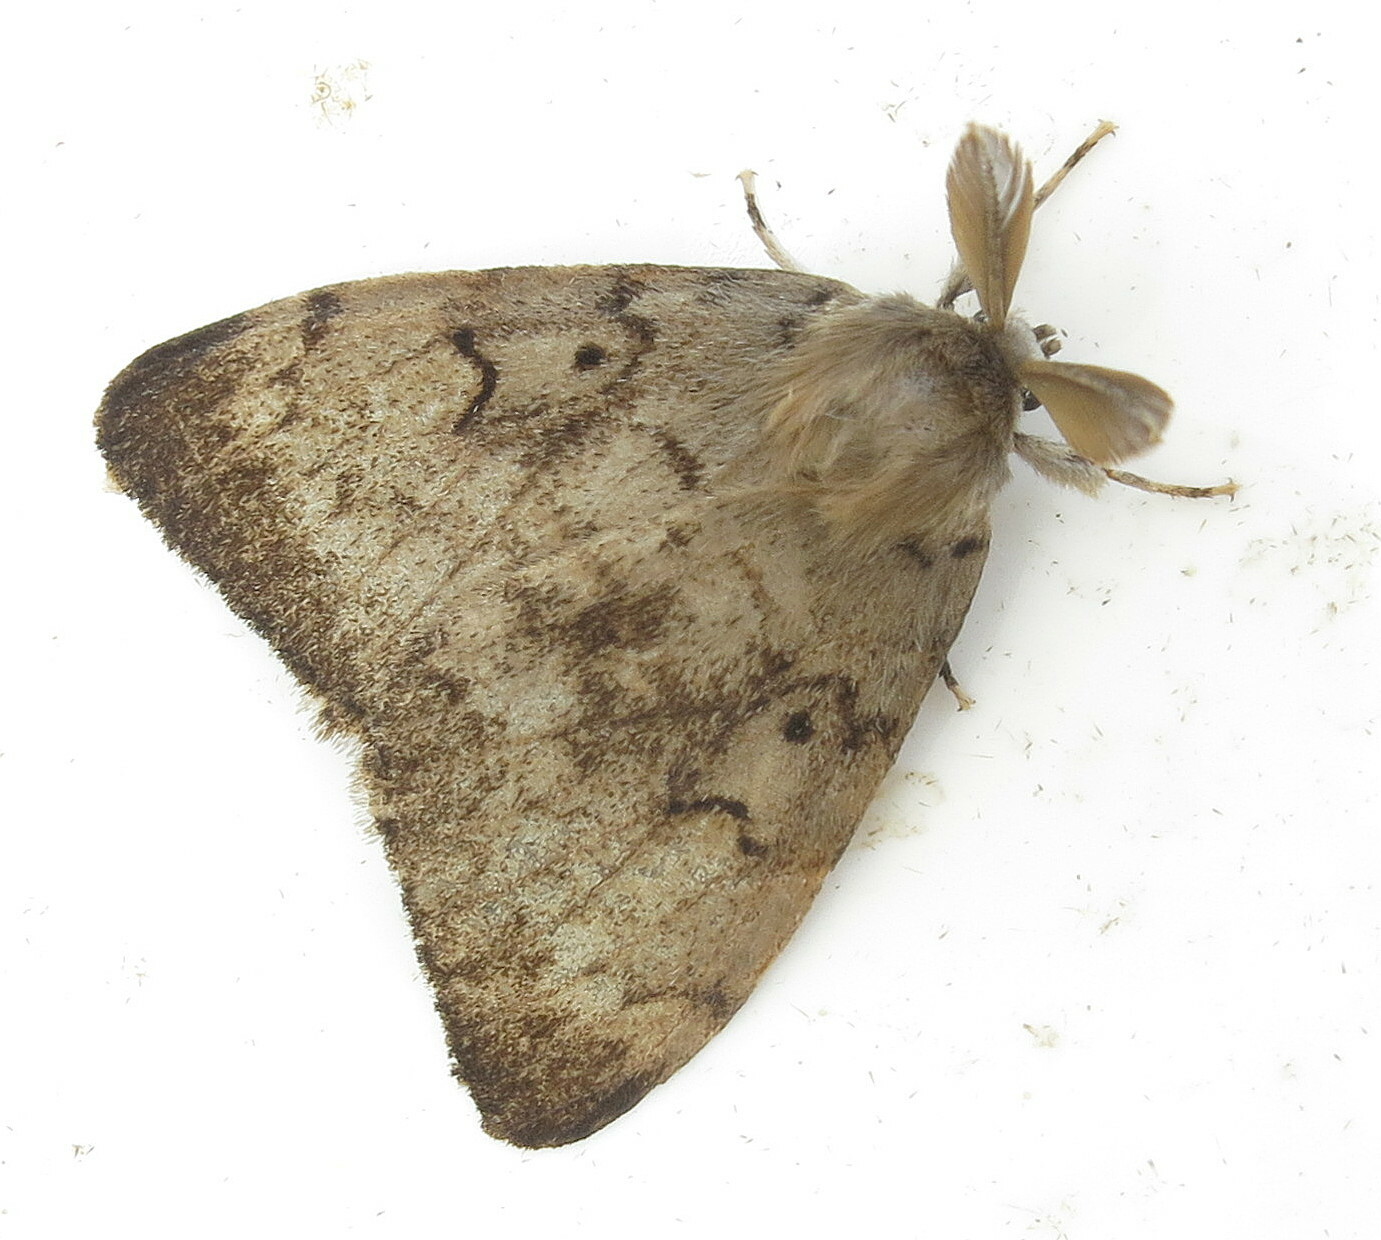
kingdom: Animalia
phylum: Arthropoda
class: Insecta
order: Lepidoptera
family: Erebidae
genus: Lymantria
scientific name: Lymantria dispar
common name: Gypsy moth
